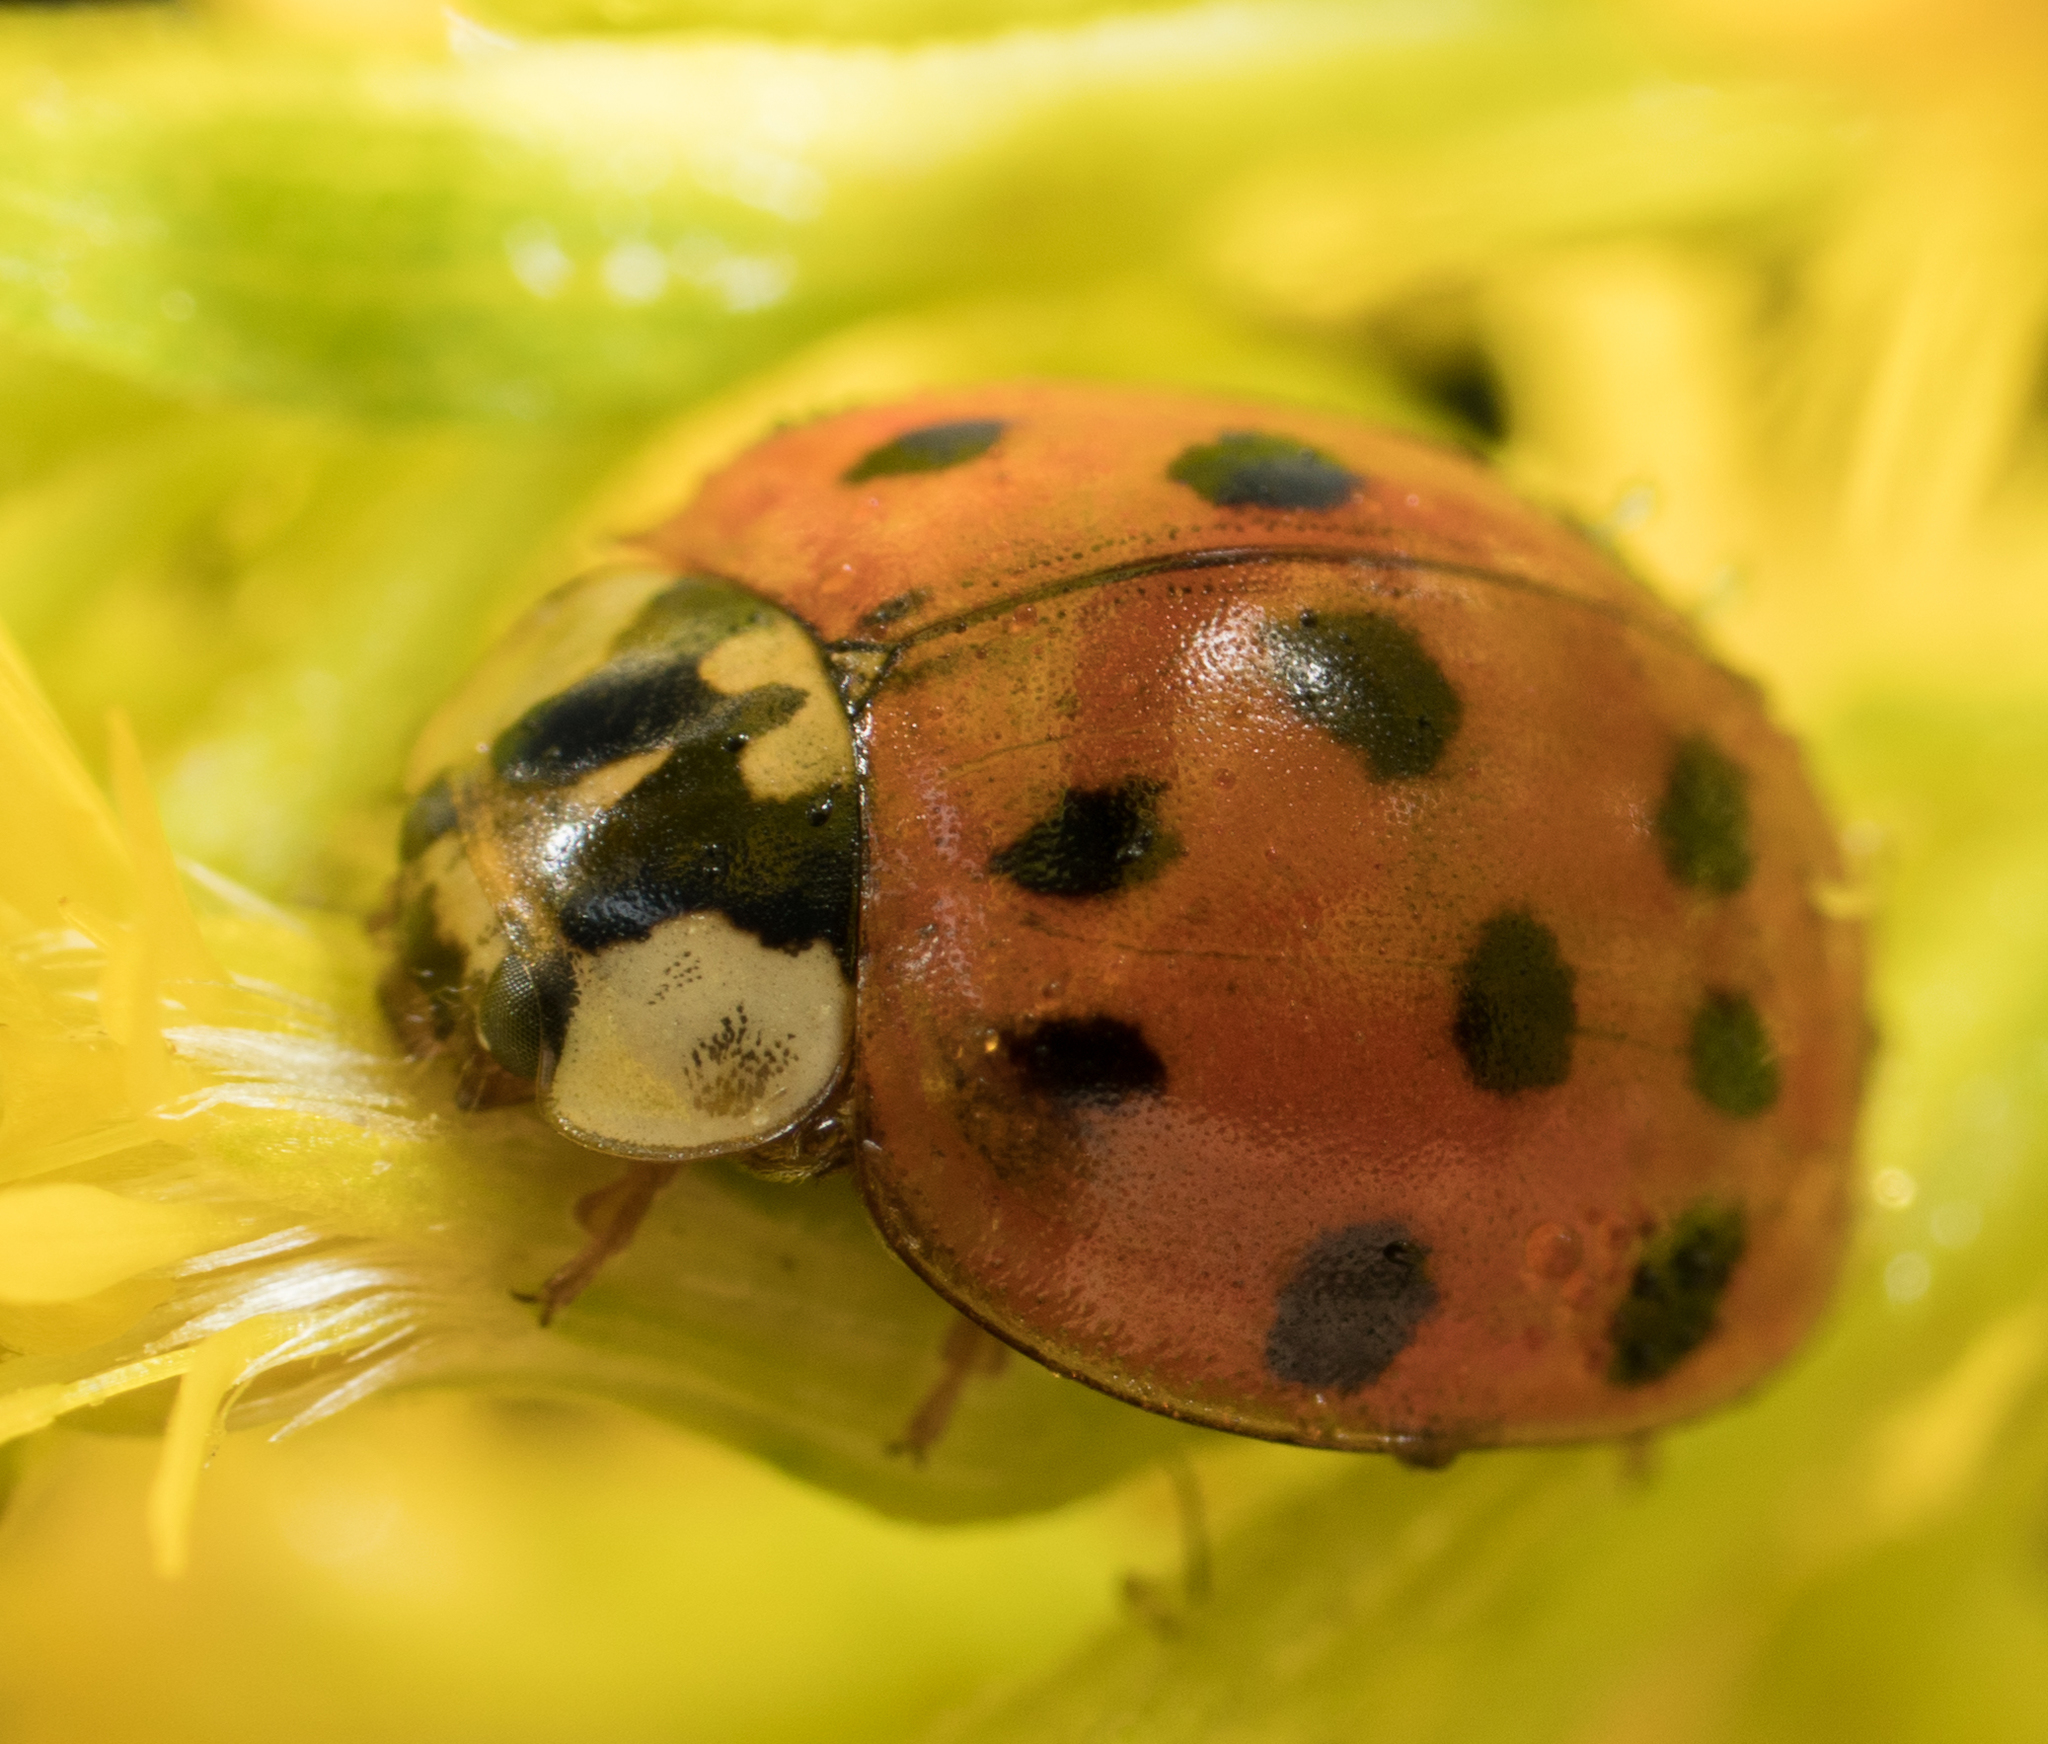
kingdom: Animalia
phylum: Arthropoda
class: Insecta
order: Coleoptera
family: Coccinellidae
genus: Harmonia
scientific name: Harmonia axyridis
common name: Harlequin ladybird
